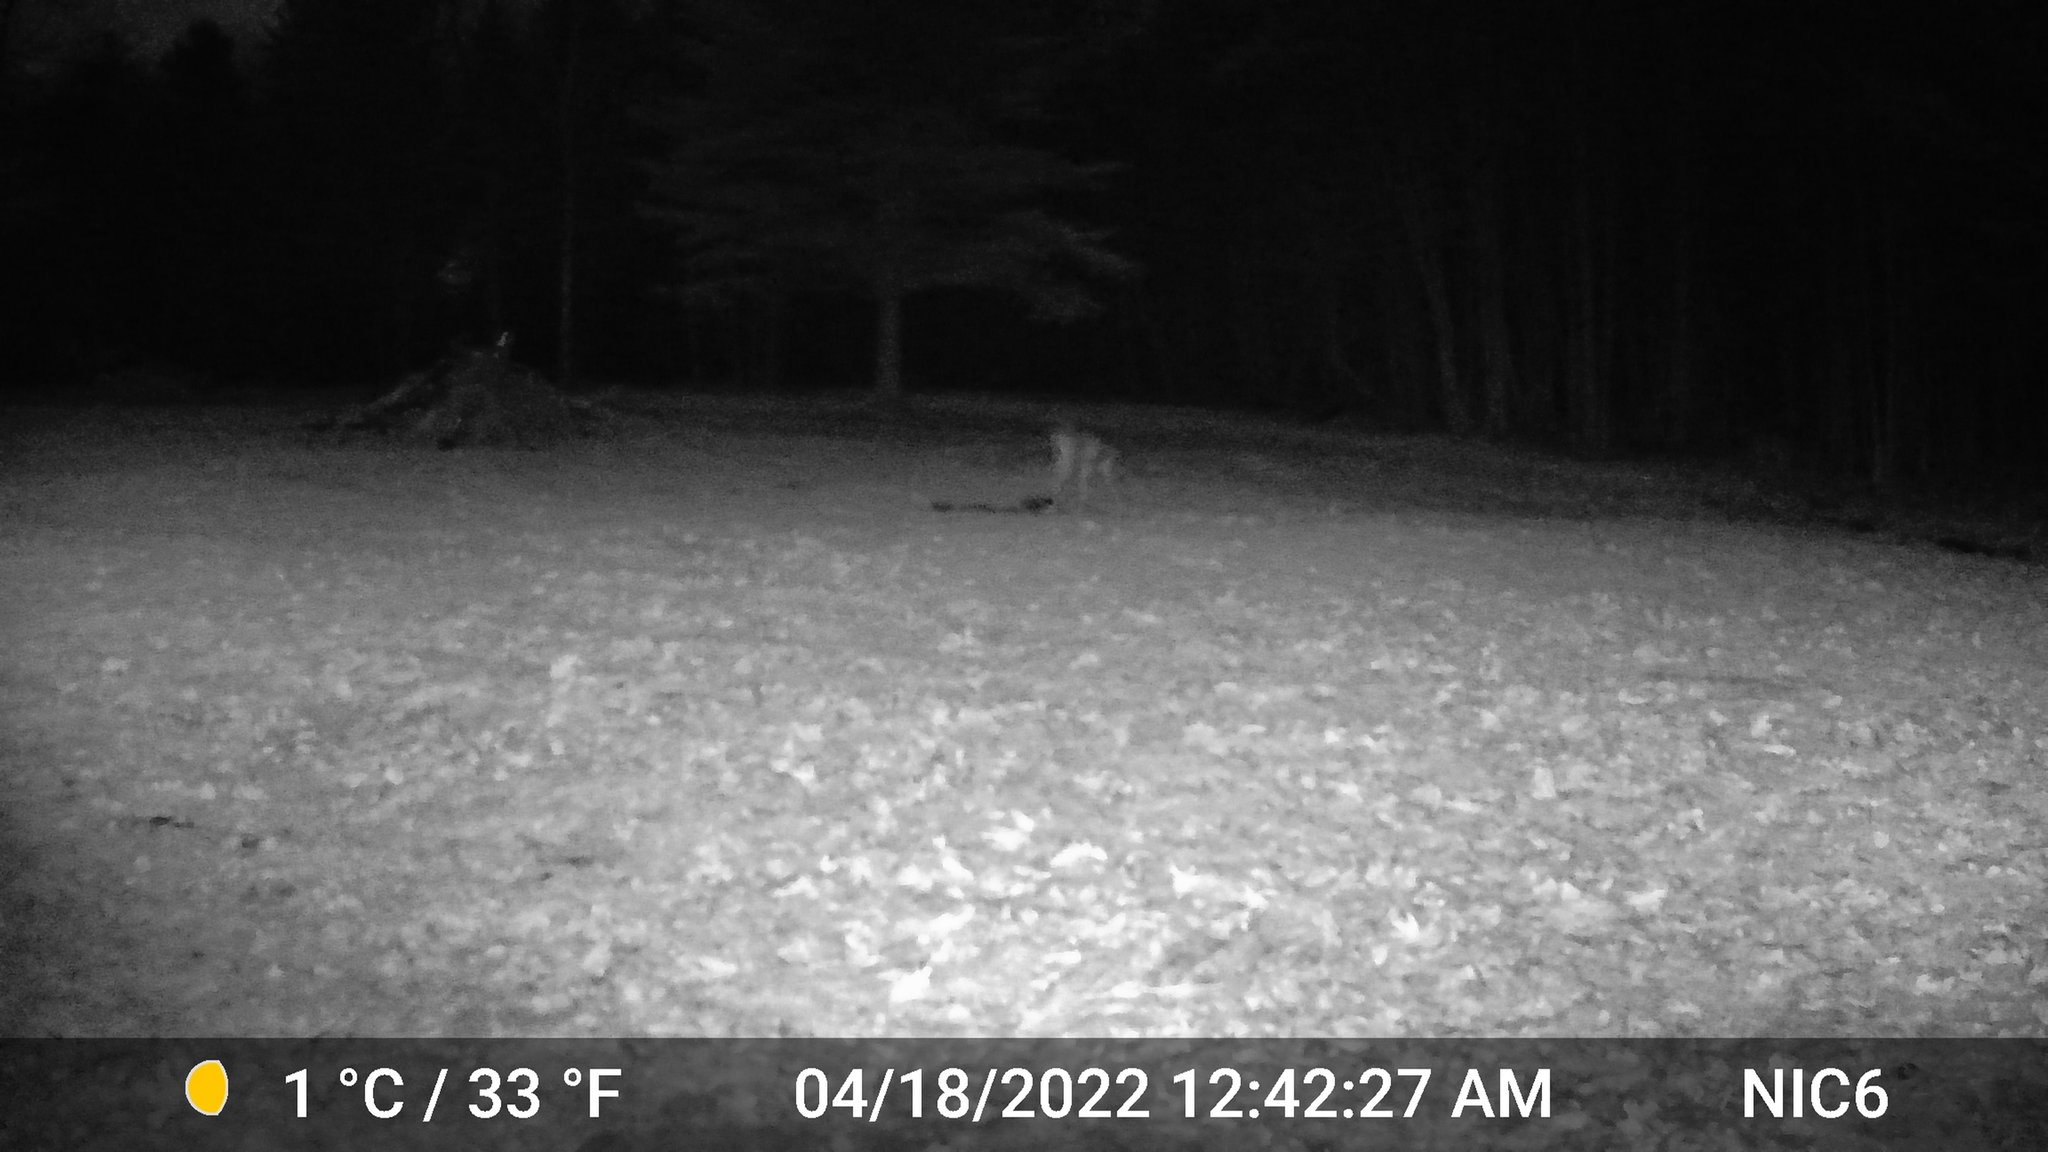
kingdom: Animalia
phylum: Chordata
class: Mammalia
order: Artiodactyla
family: Cervidae
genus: Odocoileus
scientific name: Odocoileus virginianus
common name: White-tailed deer
